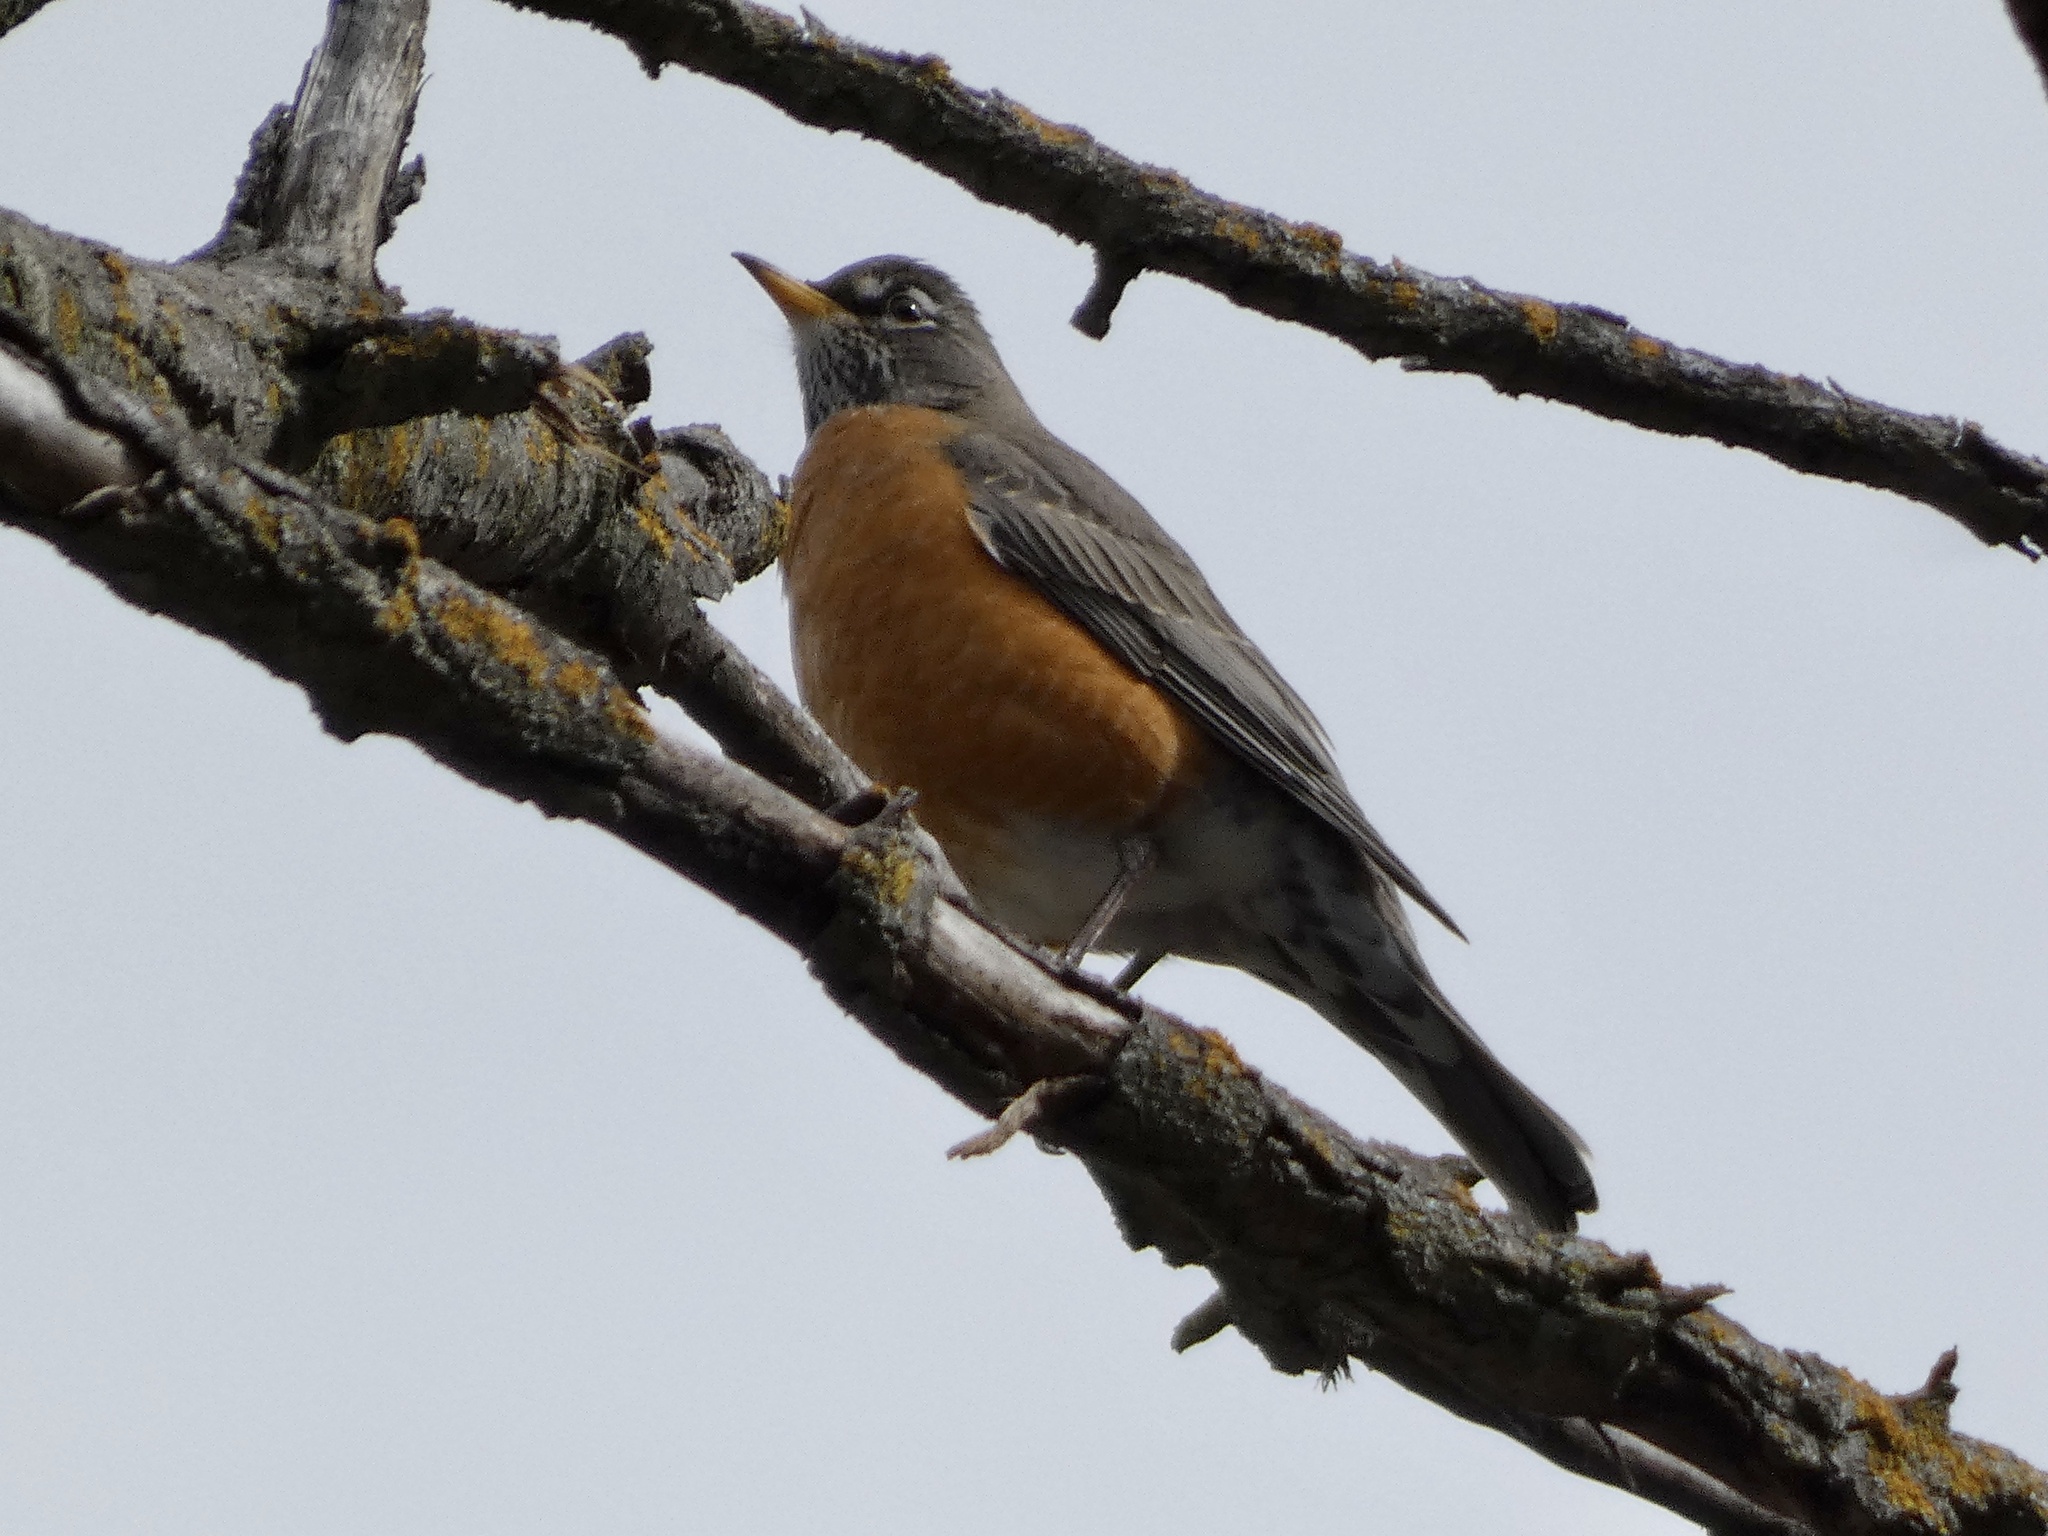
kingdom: Animalia
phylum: Chordata
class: Aves
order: Passeriformes
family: Turdidae
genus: Turdus
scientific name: Turdus migratorius
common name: American robin
